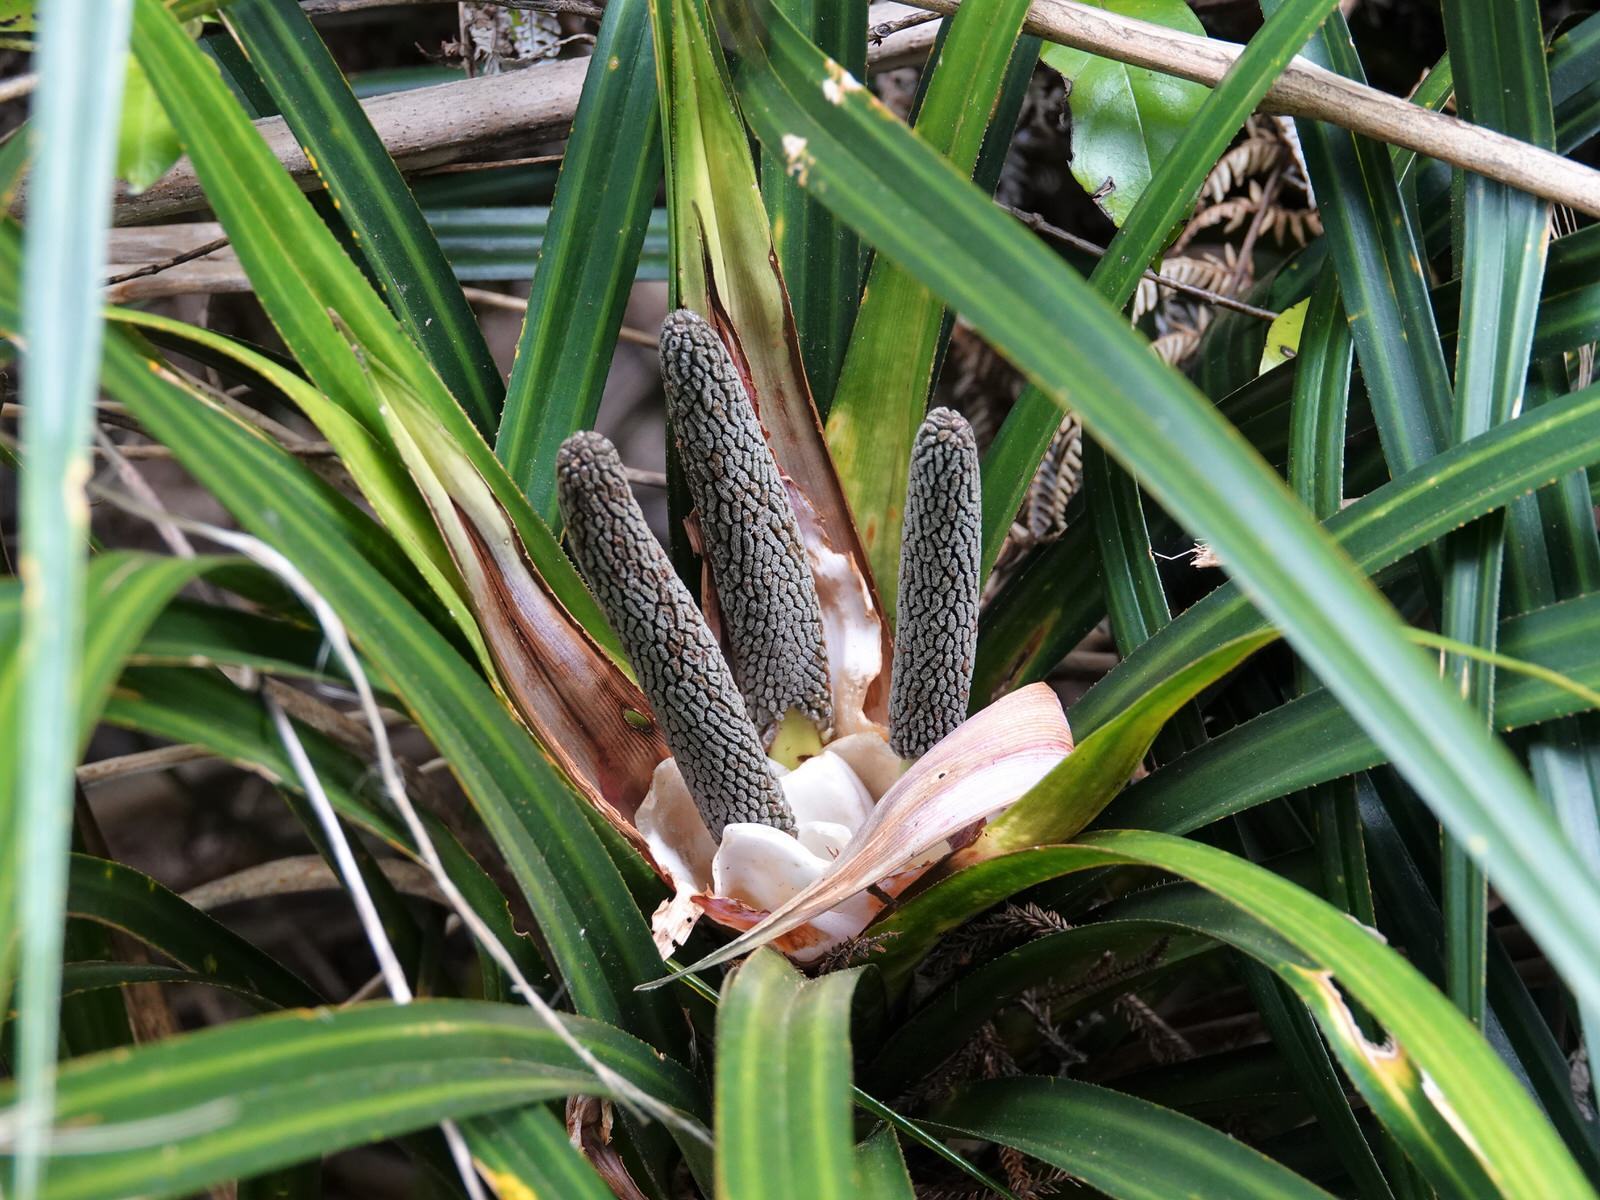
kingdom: Plantae
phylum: Tracheophyta
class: Liliopsida
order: Pandanales
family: Pandanaceae
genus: Freycinetia
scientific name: Freycinetia banksii
